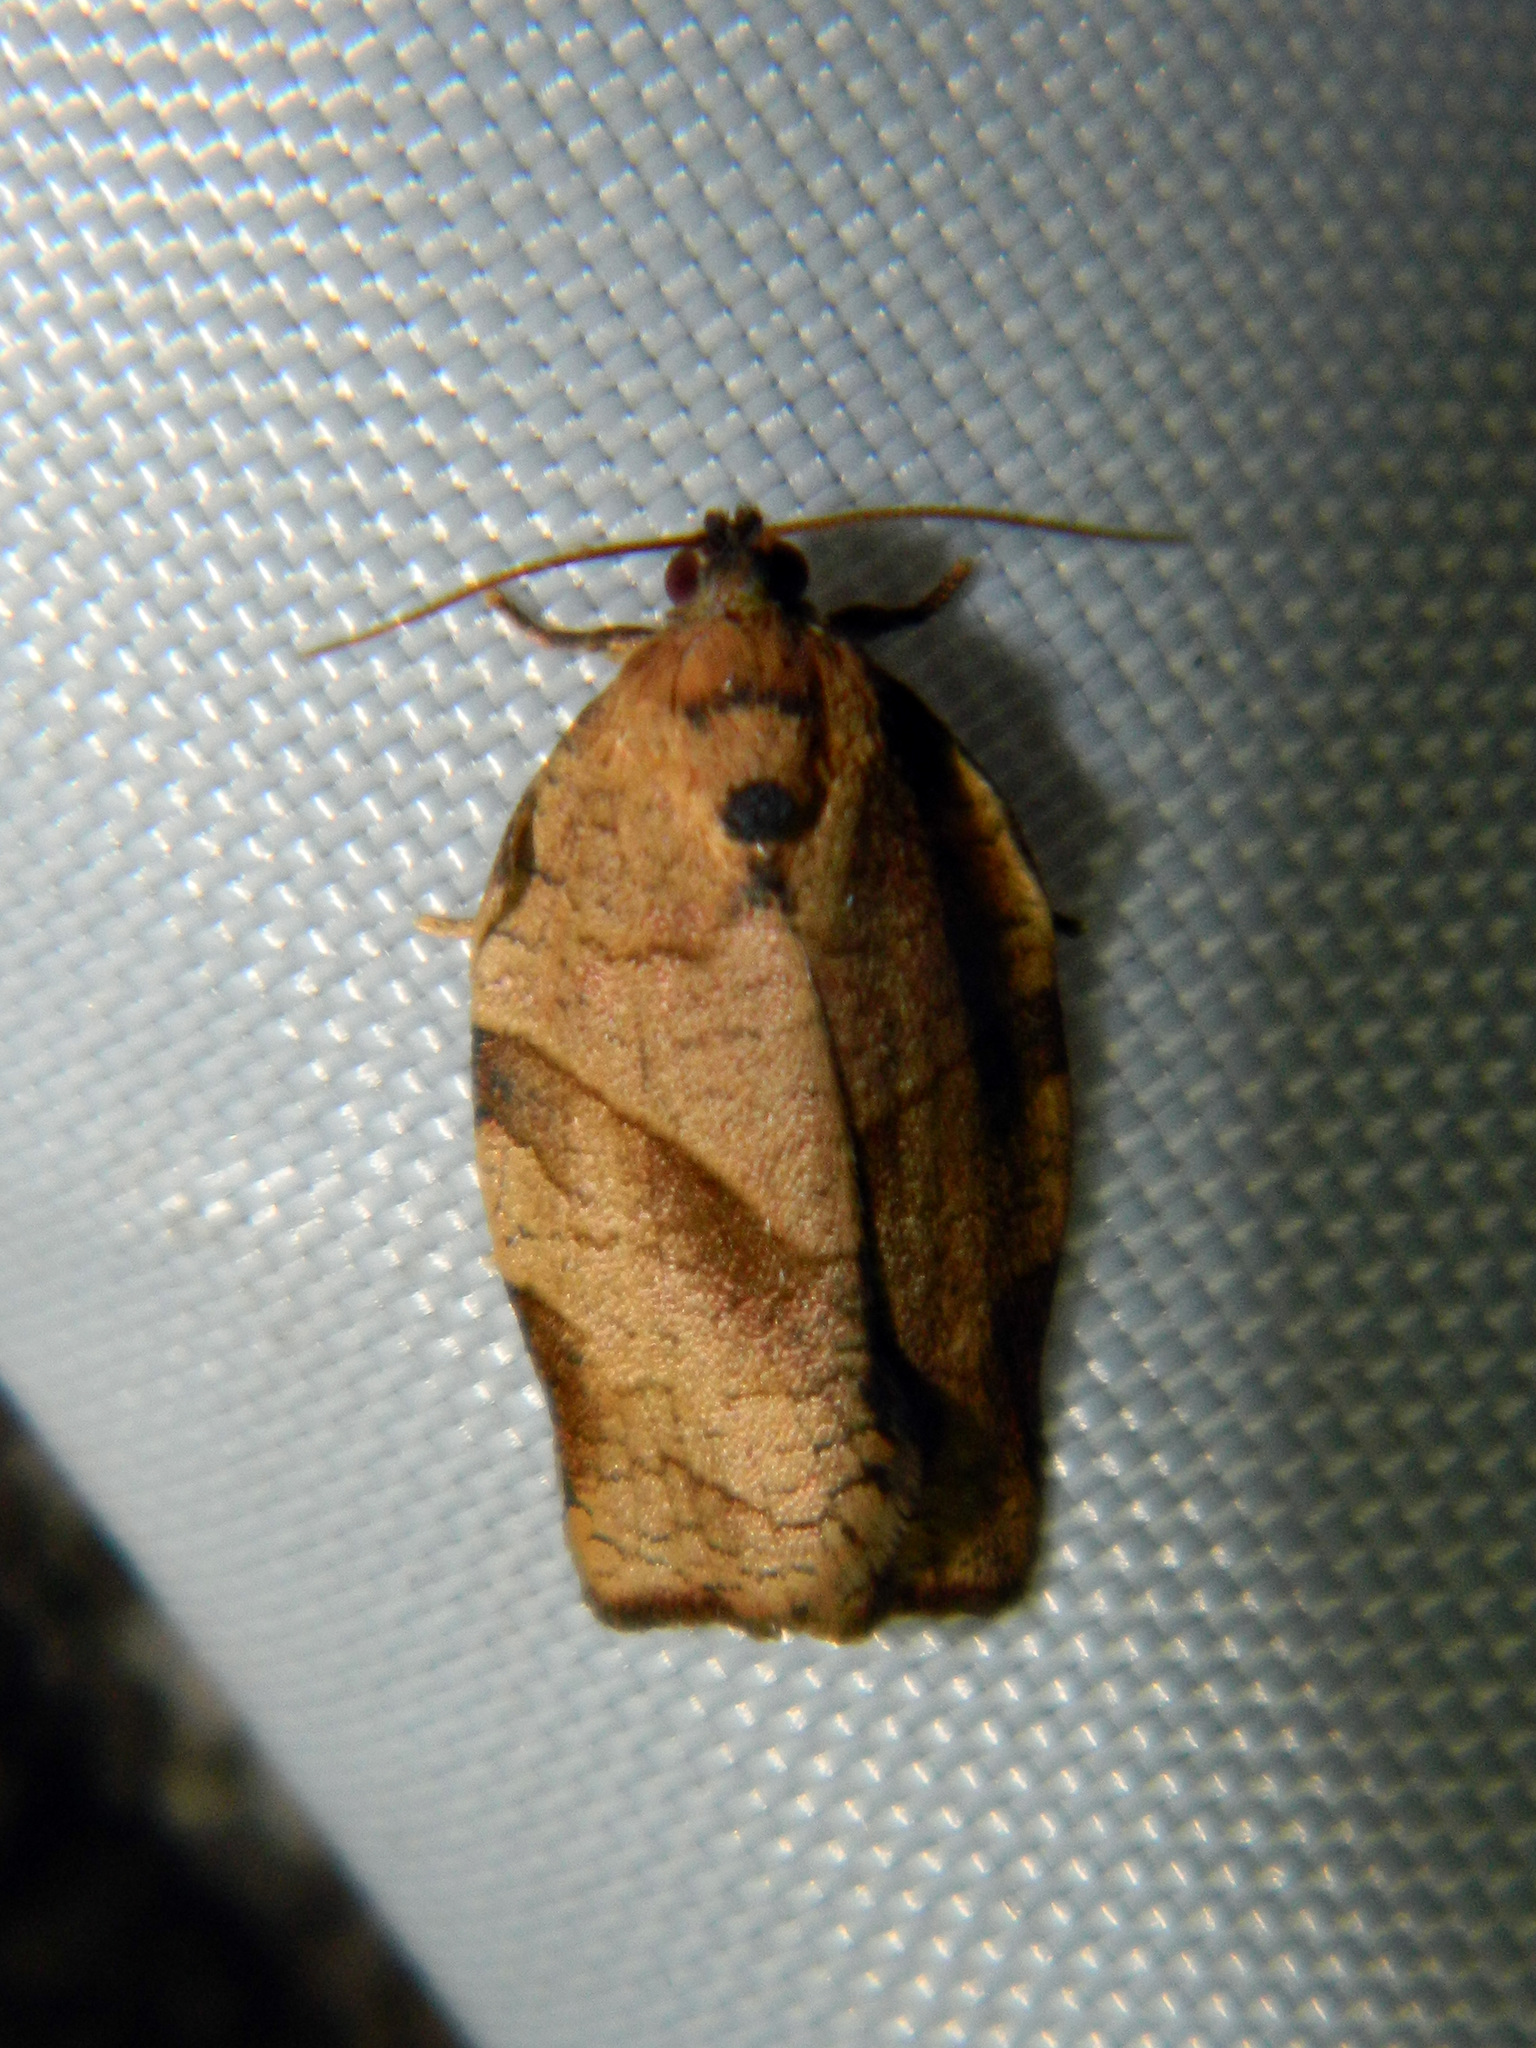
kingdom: Animalia
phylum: Arthropoda
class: Insecta
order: Lepidoptera
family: Tortricidae
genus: Choristoneura
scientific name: Choristoneura rosaceana
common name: Oblique-banded leafroller moth
